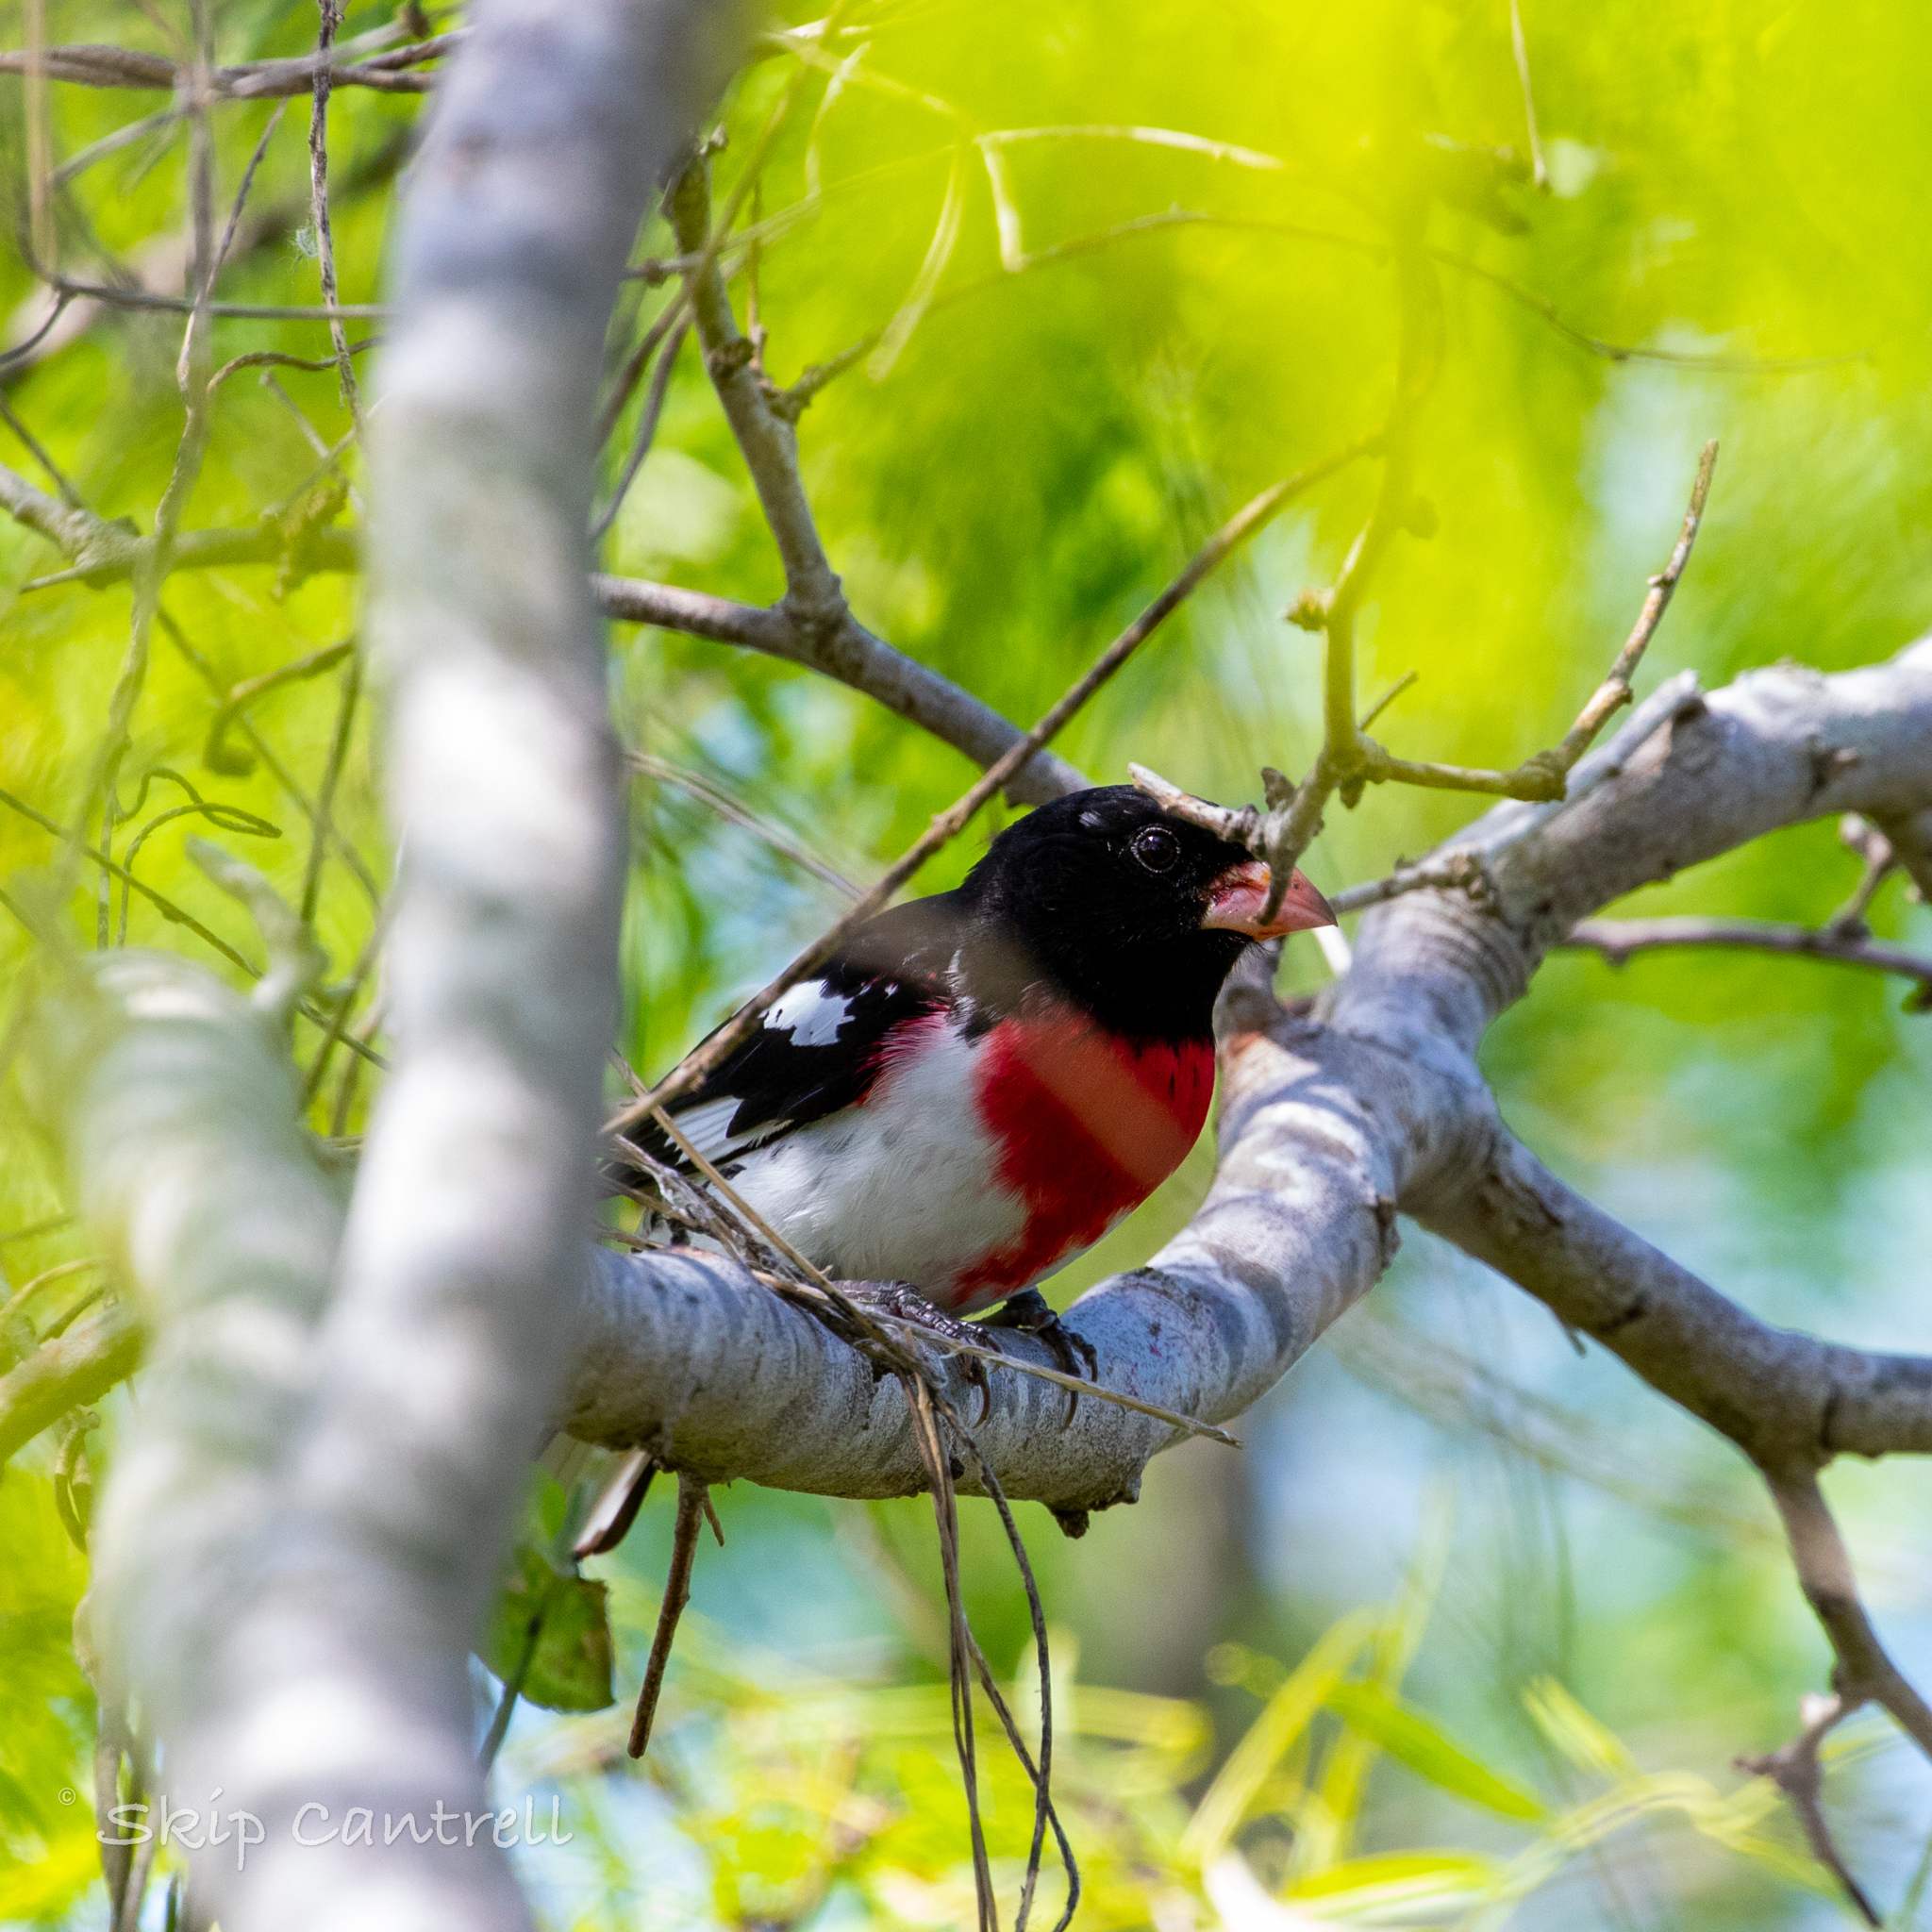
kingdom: Animalia
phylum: Chordata
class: Aves
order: Passeriformes
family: Cardinalidae
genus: Pheucticus
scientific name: Pheucticus ludovicianus
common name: Rose-breasted grosbeak
